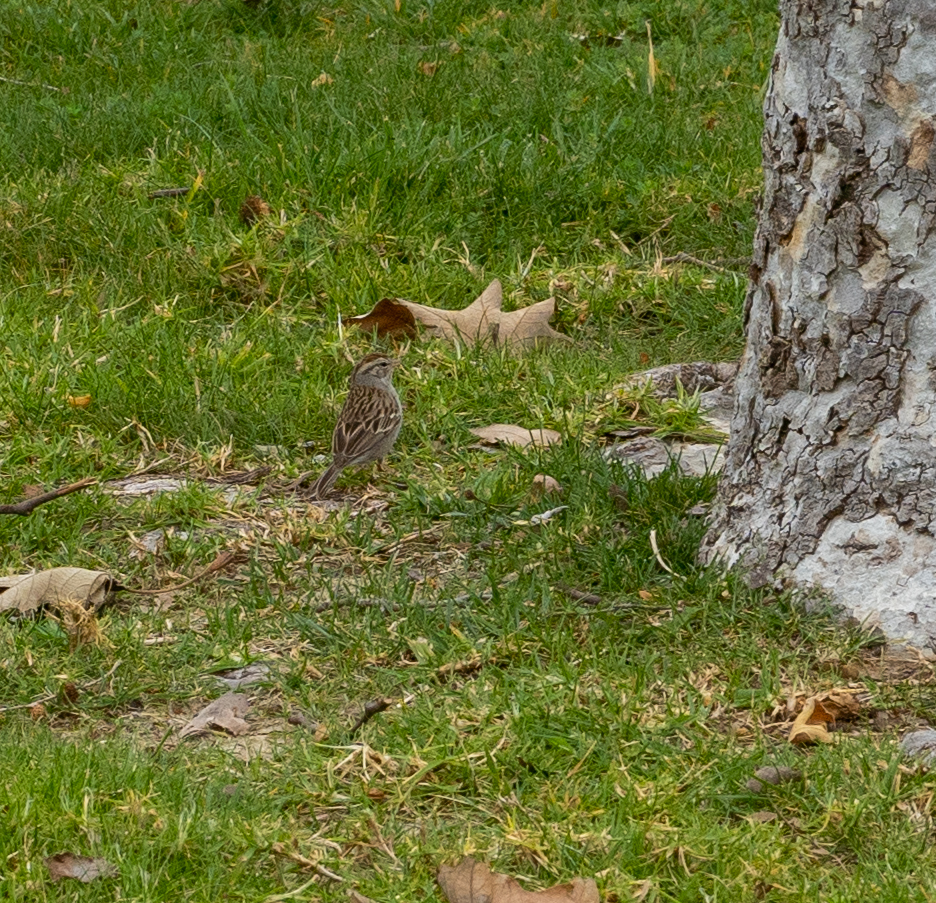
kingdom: Animalia
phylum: Chordata
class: Aves
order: Passeriformes
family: Passerellidae
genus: Spizella
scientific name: Spizella passerina
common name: Chipping sparrow
